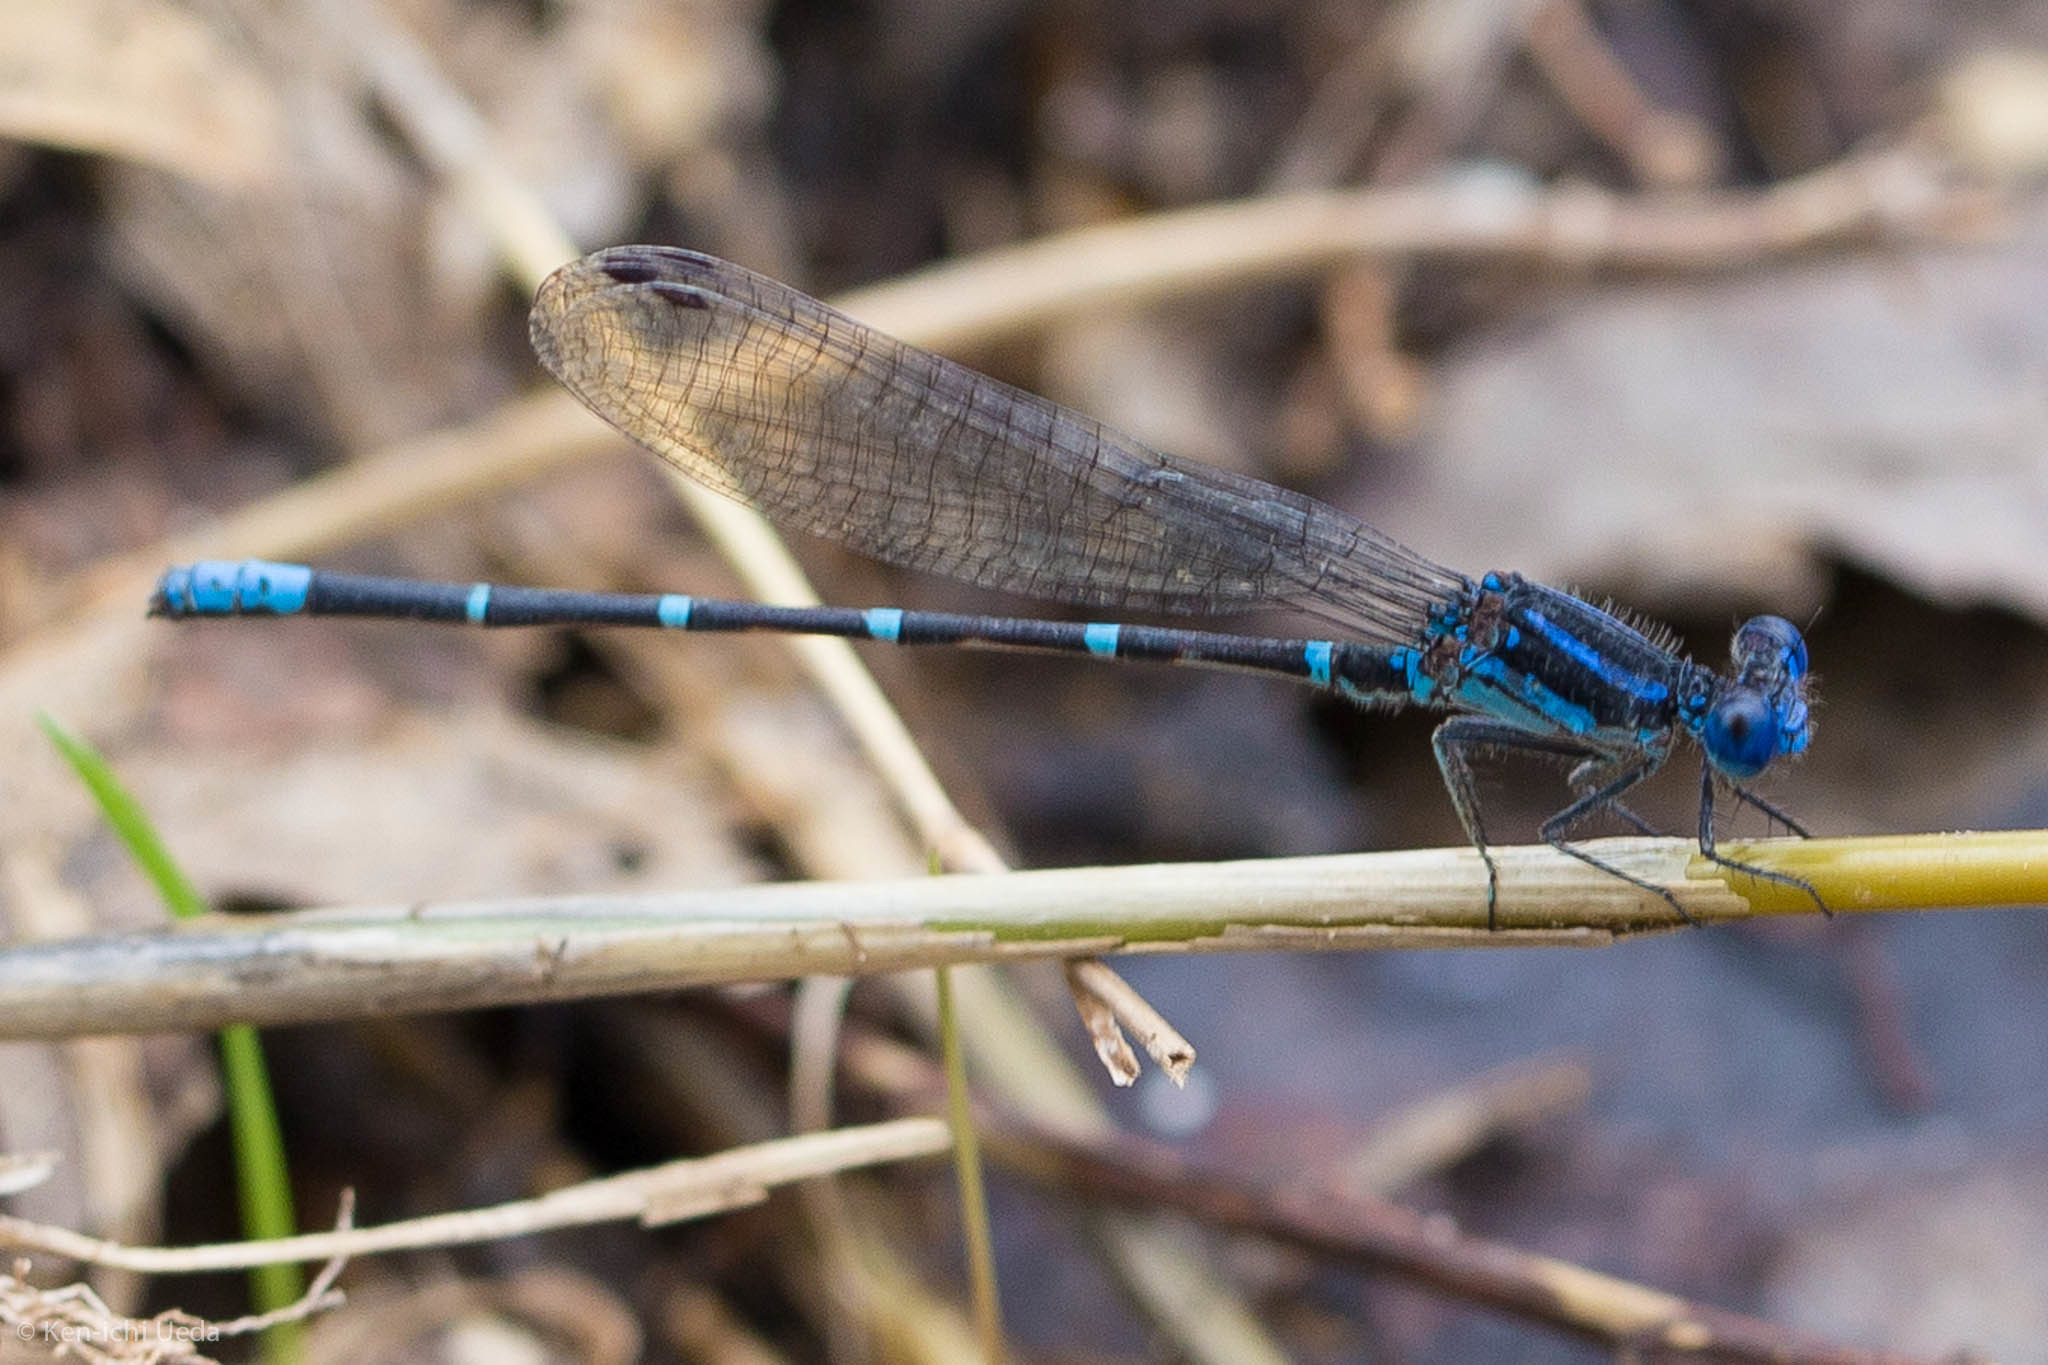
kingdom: Animalia
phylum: Arthropoda
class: Insecta
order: Odonata
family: Coenagrionidae
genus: Argia
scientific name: Argia sedula
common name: Blue-ringed dancer
